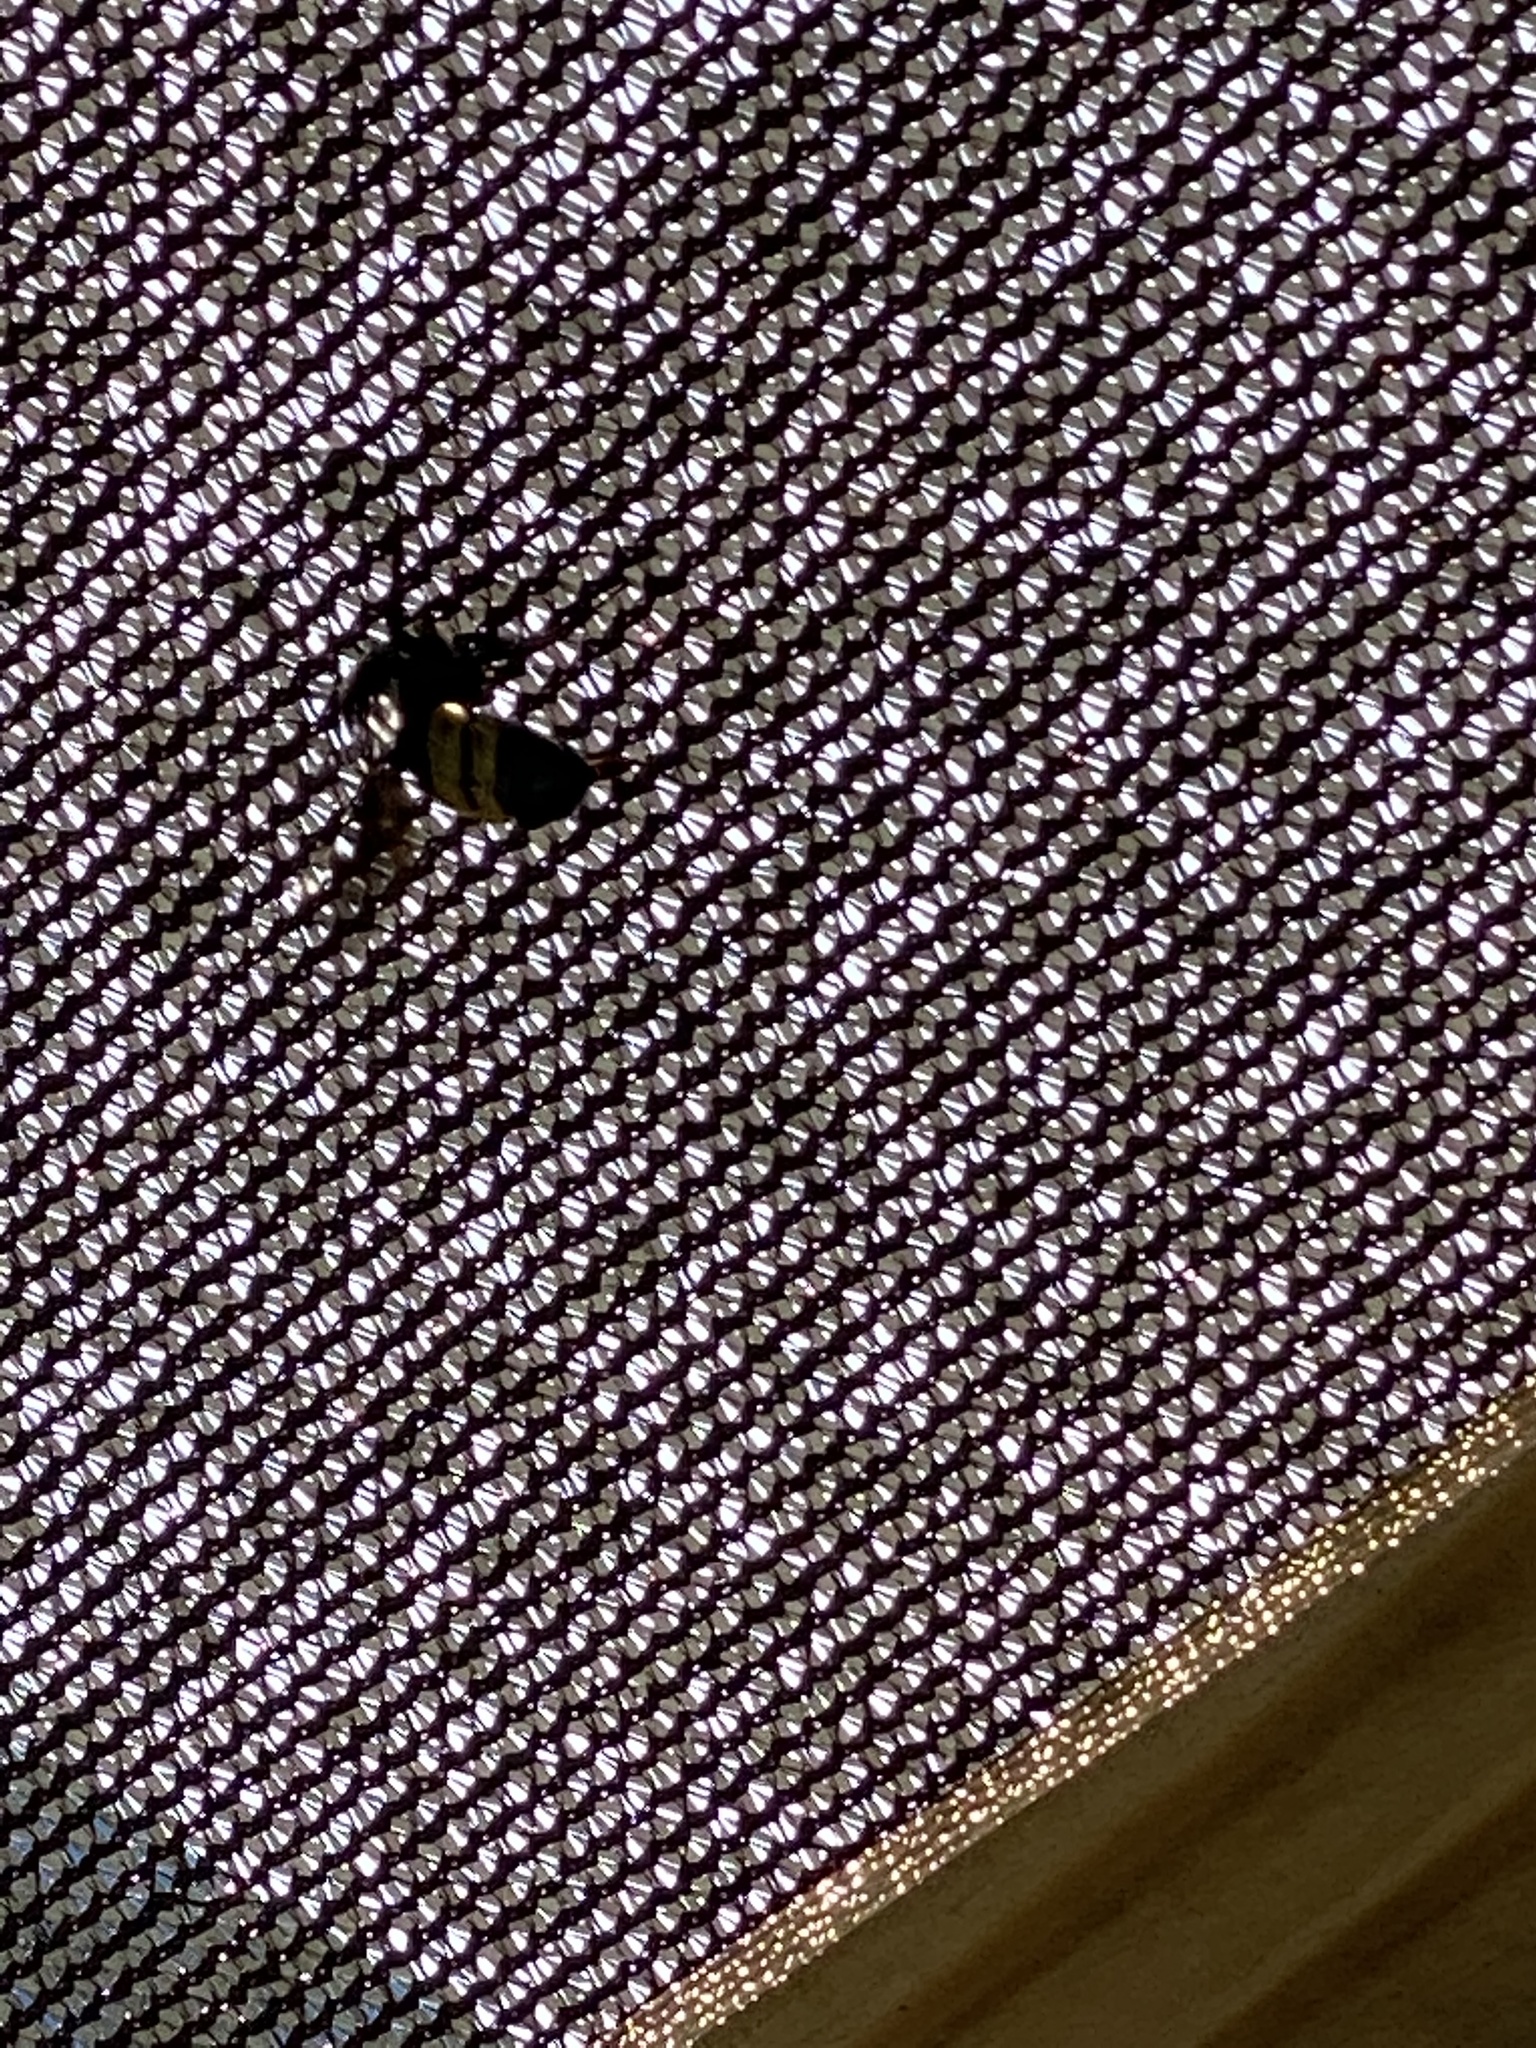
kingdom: Animalia
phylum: Arthropoda
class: Insecta
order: Hymenoptera
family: Apidae
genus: Bombus
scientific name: Bombus pensylvanicus
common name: Bumble bee
